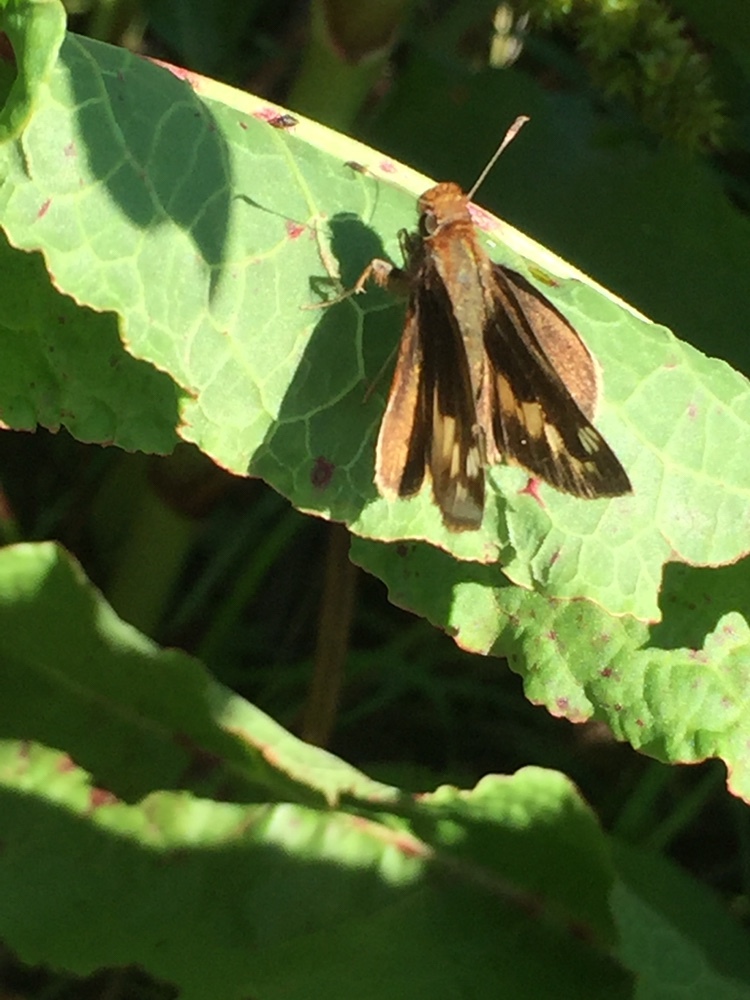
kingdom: Animalia
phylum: Arthropoda
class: Insecta
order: Lepidoptera
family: Hesperiidae
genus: Lon
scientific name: Lon zabulon
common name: Zabulon skipper
